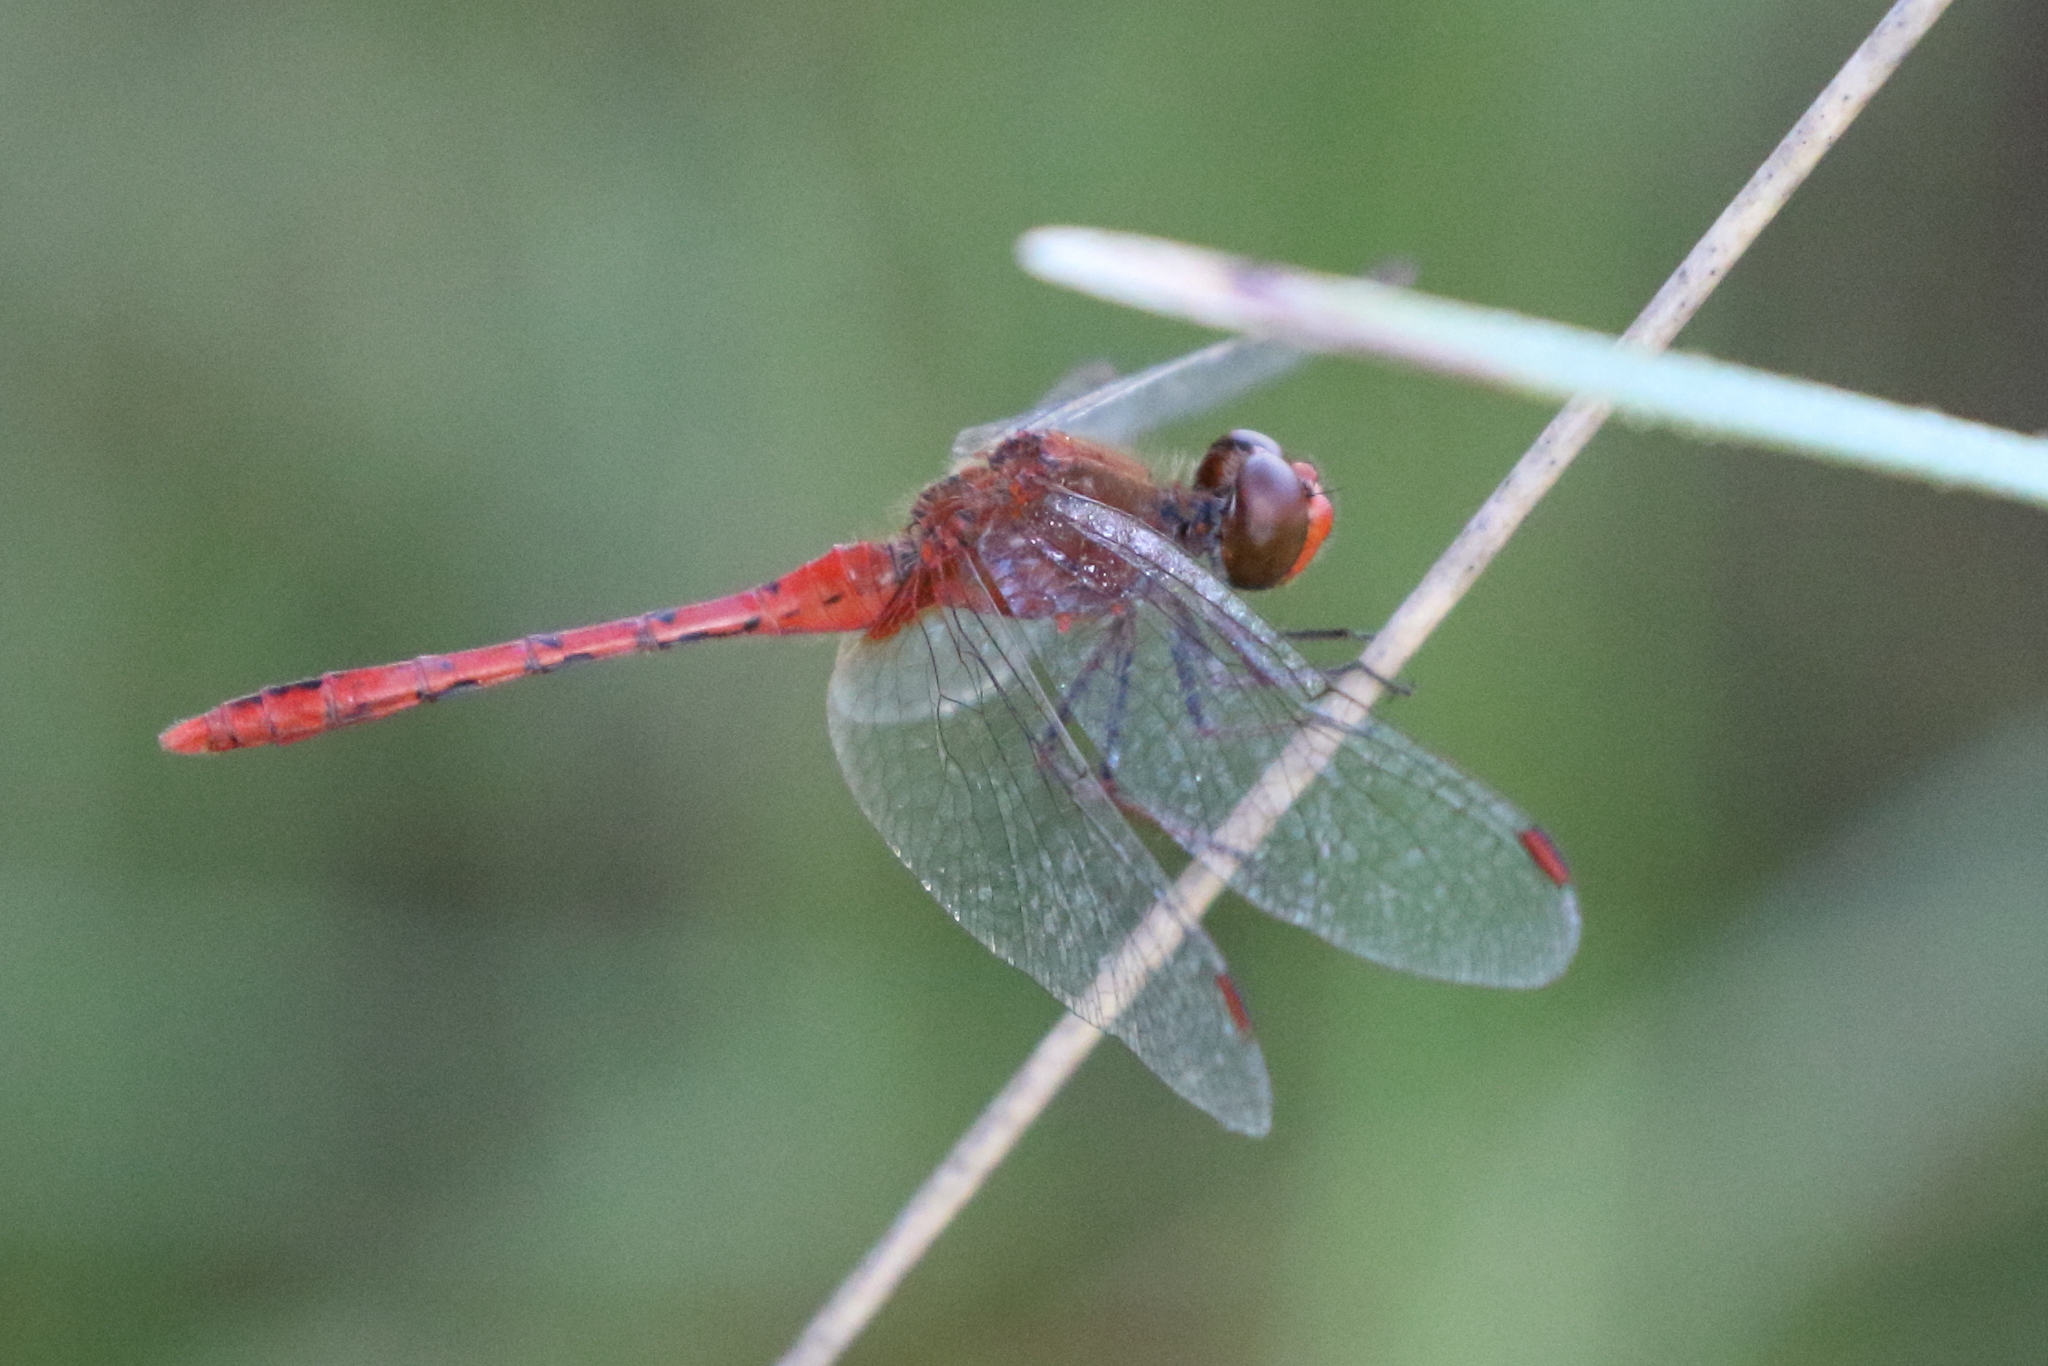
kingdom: Animalia
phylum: Arthropoda
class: Insecta
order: Odonata
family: Libellulidae
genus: Diplacodes
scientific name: Diplacodes bipunctata
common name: Red percher dragonfly
